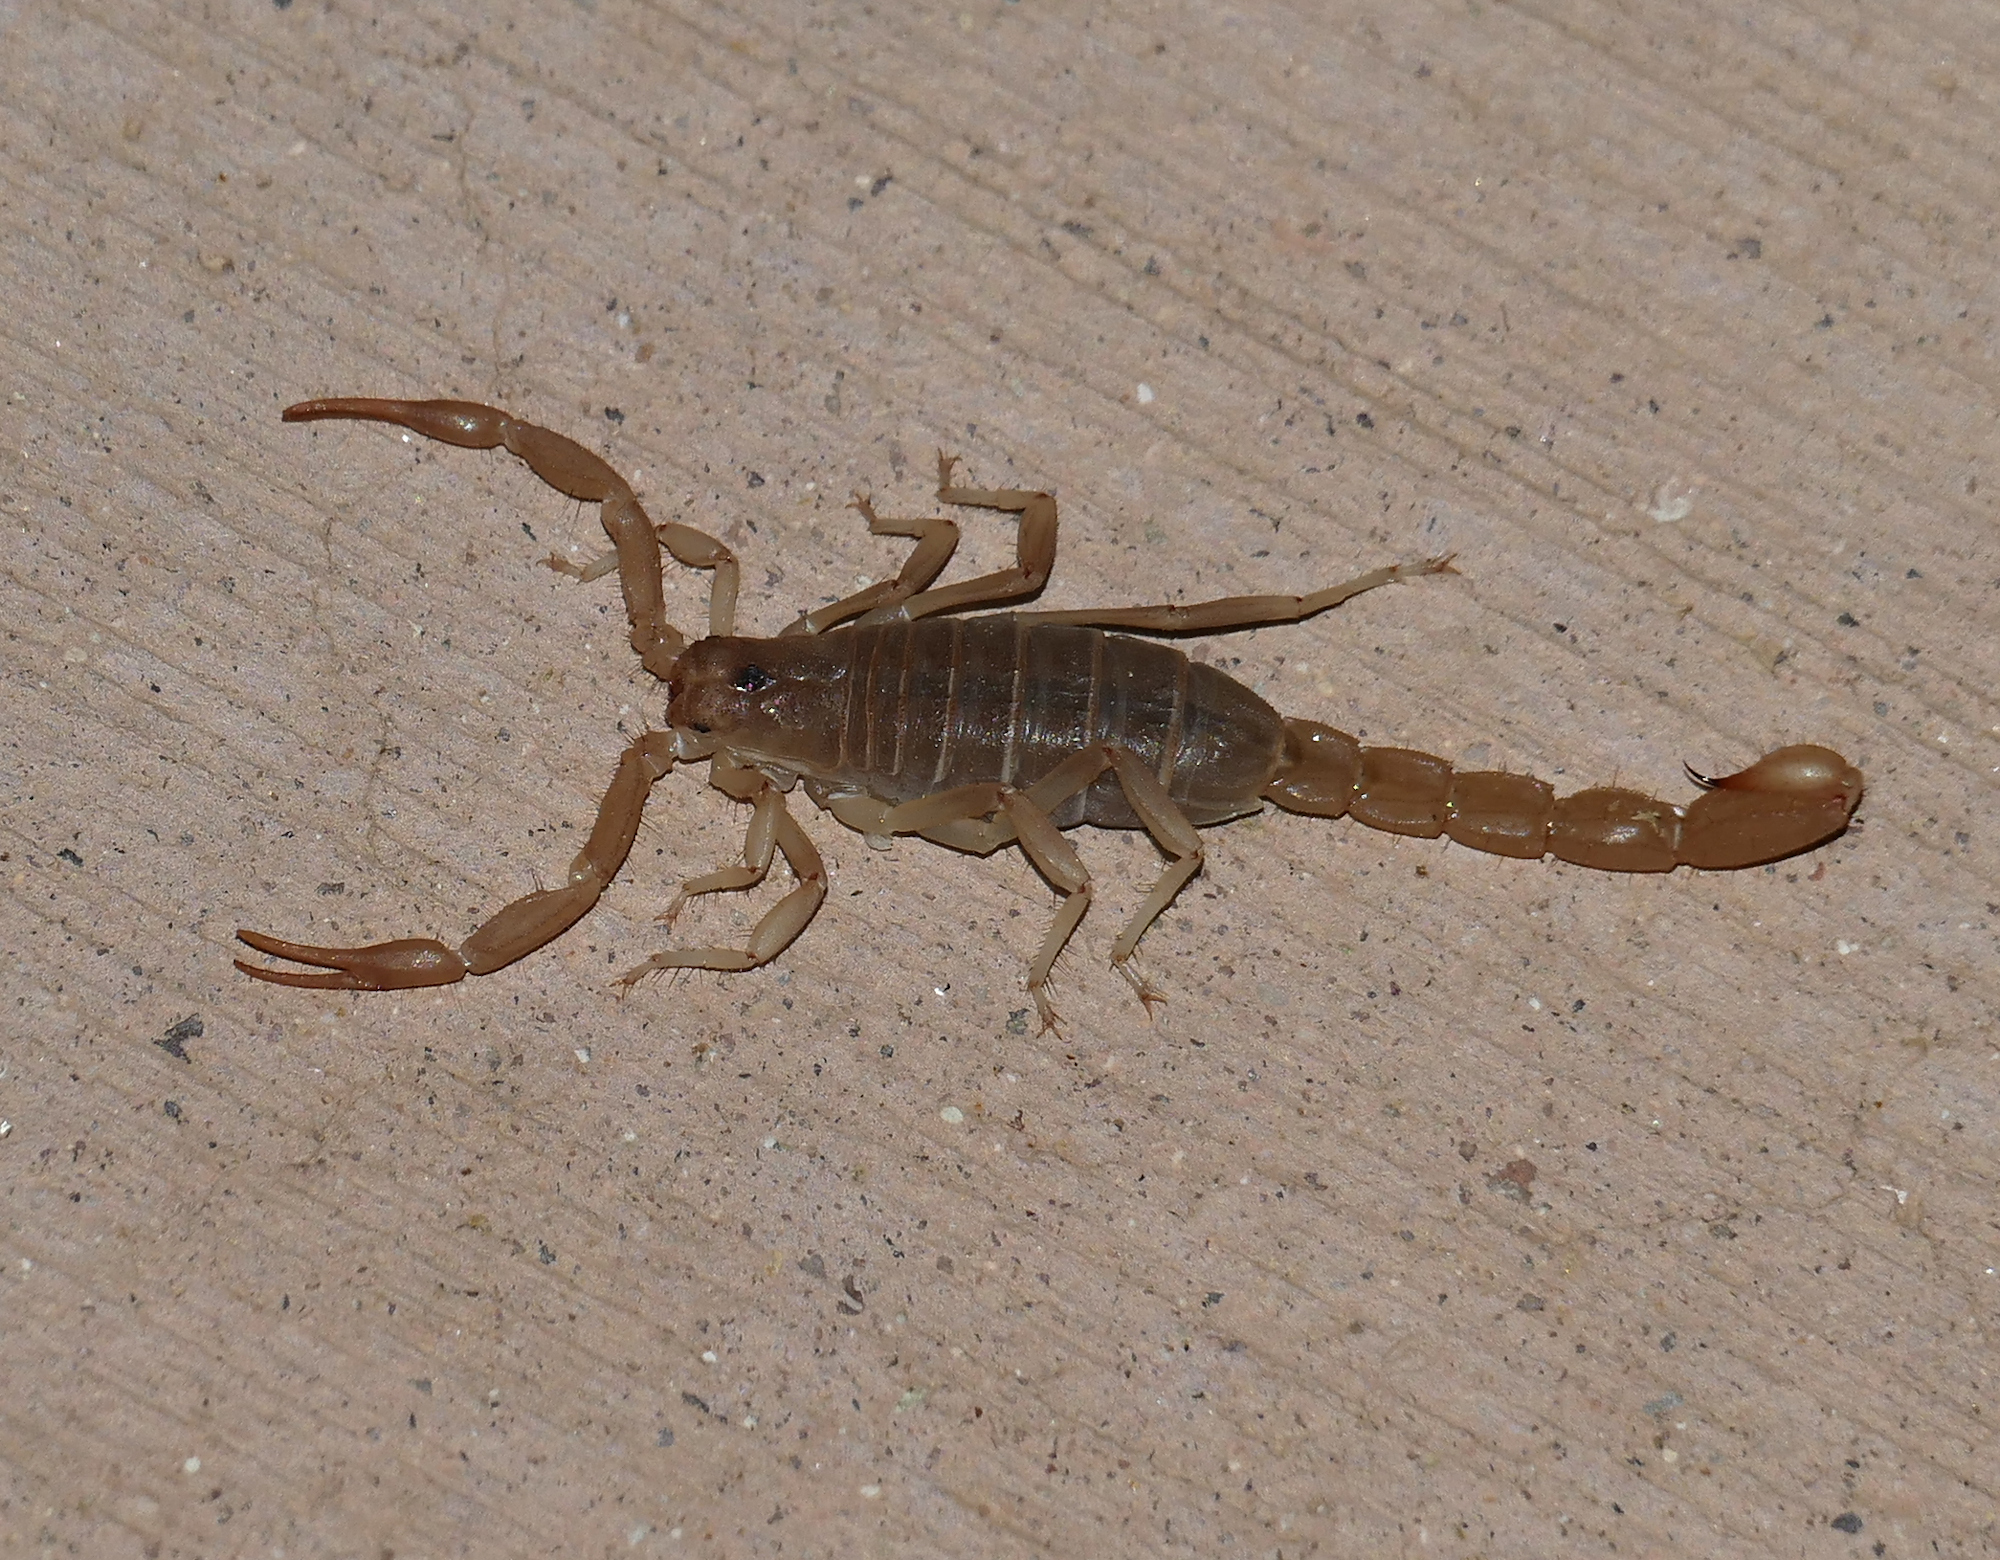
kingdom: Animalia
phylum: Arthropoda
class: Arachnida
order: Scorpiones
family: Vaejovidae
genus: Paravaejovis
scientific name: Paravaejovis confusus
